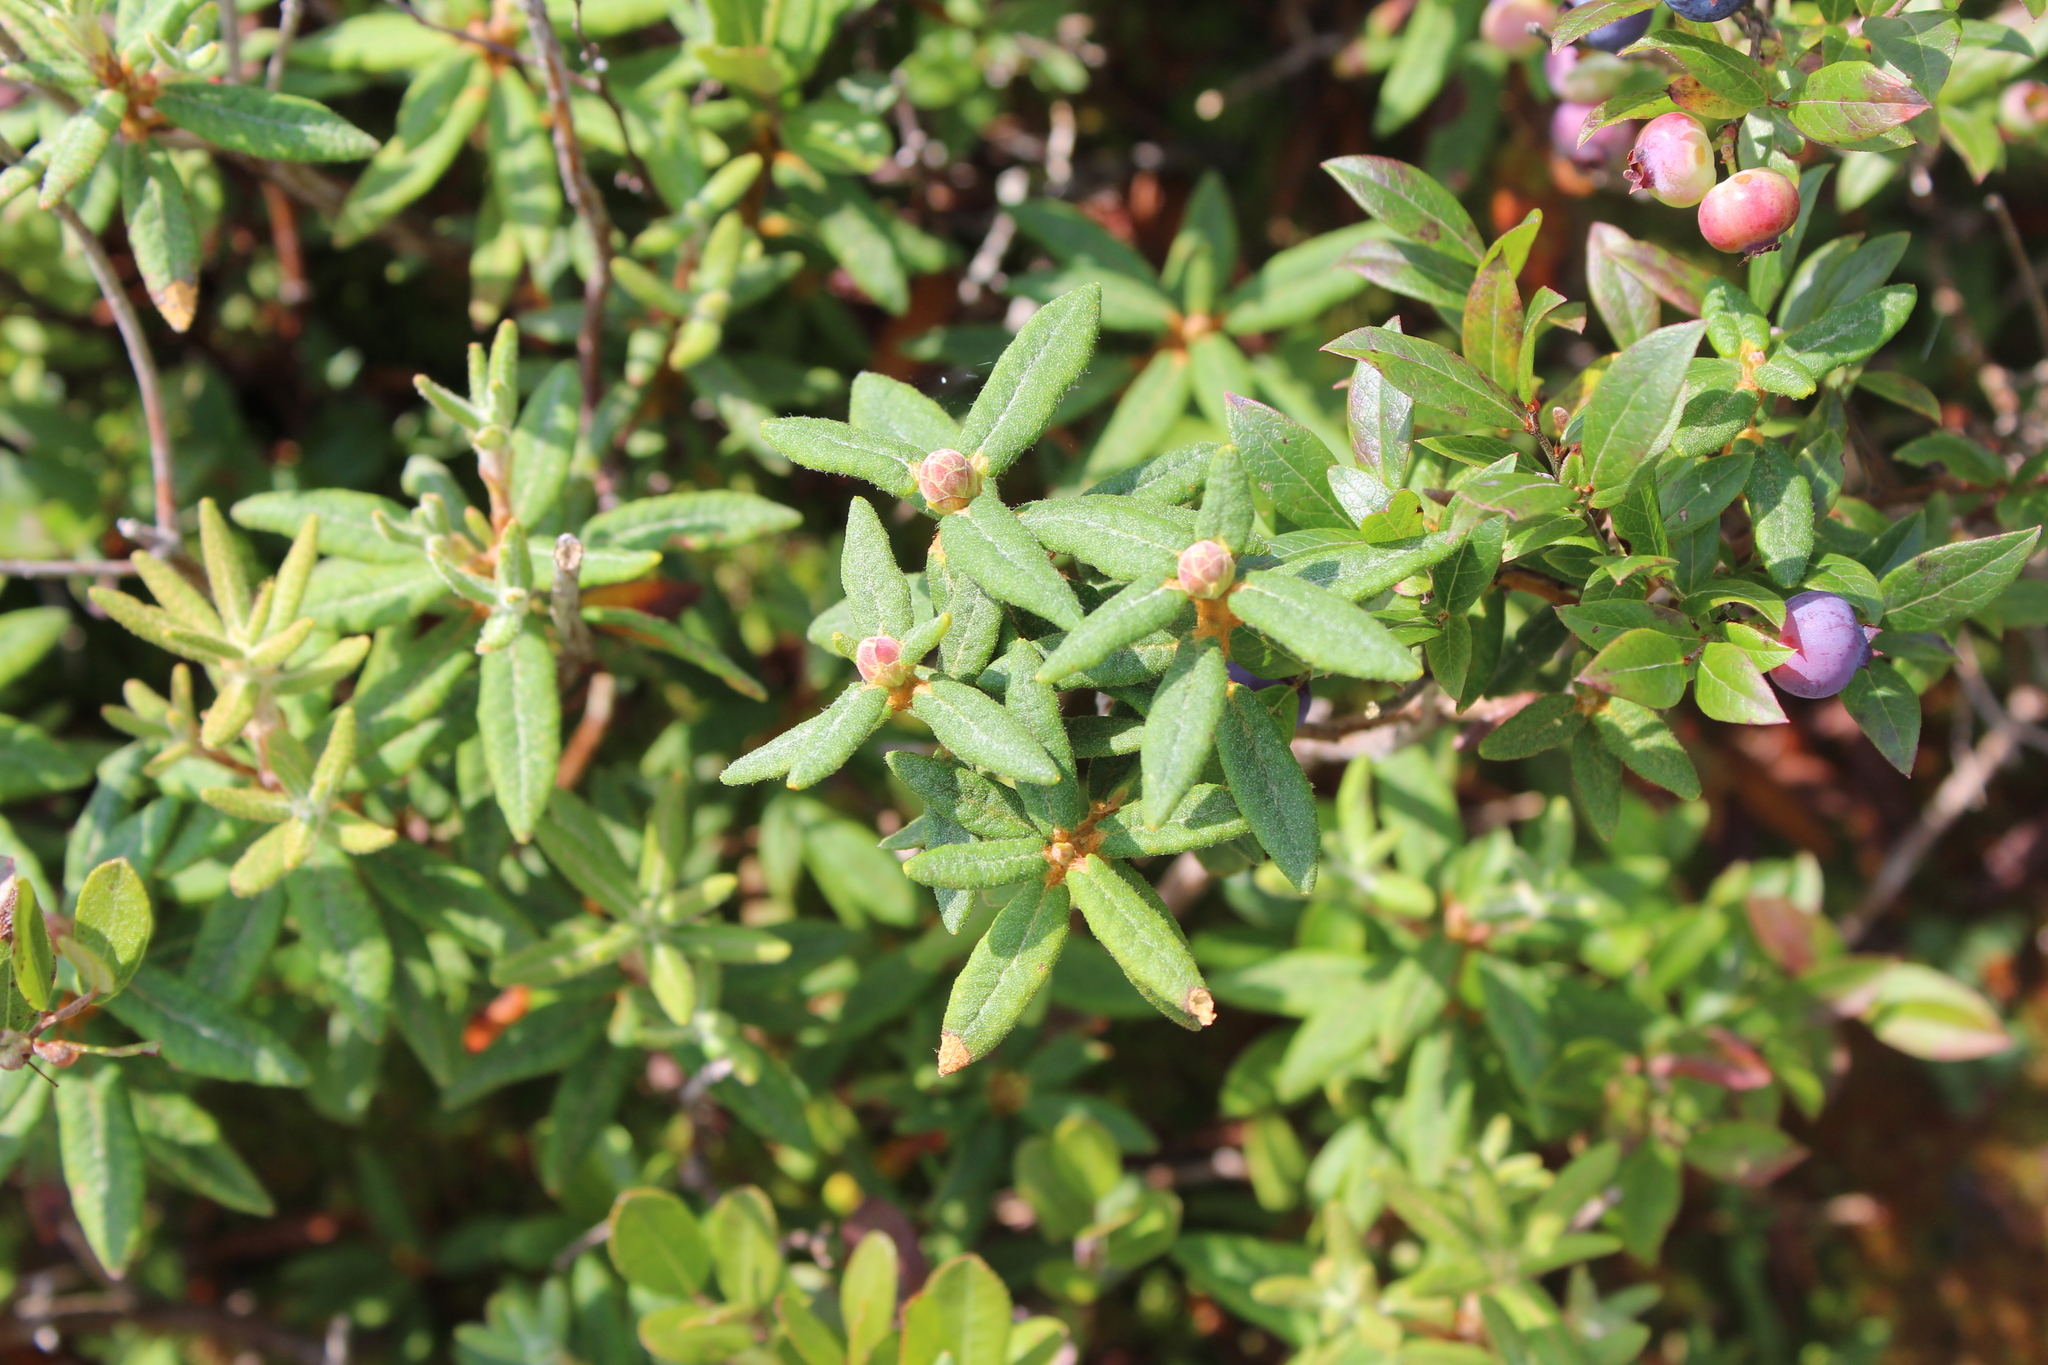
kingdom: Plantae
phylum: Tracheophyta
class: Magnoliopsida
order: Ericales
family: Ericaceae
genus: Rhododendron
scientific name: Rhododendron groenlandicum
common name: Bog labrador tea
